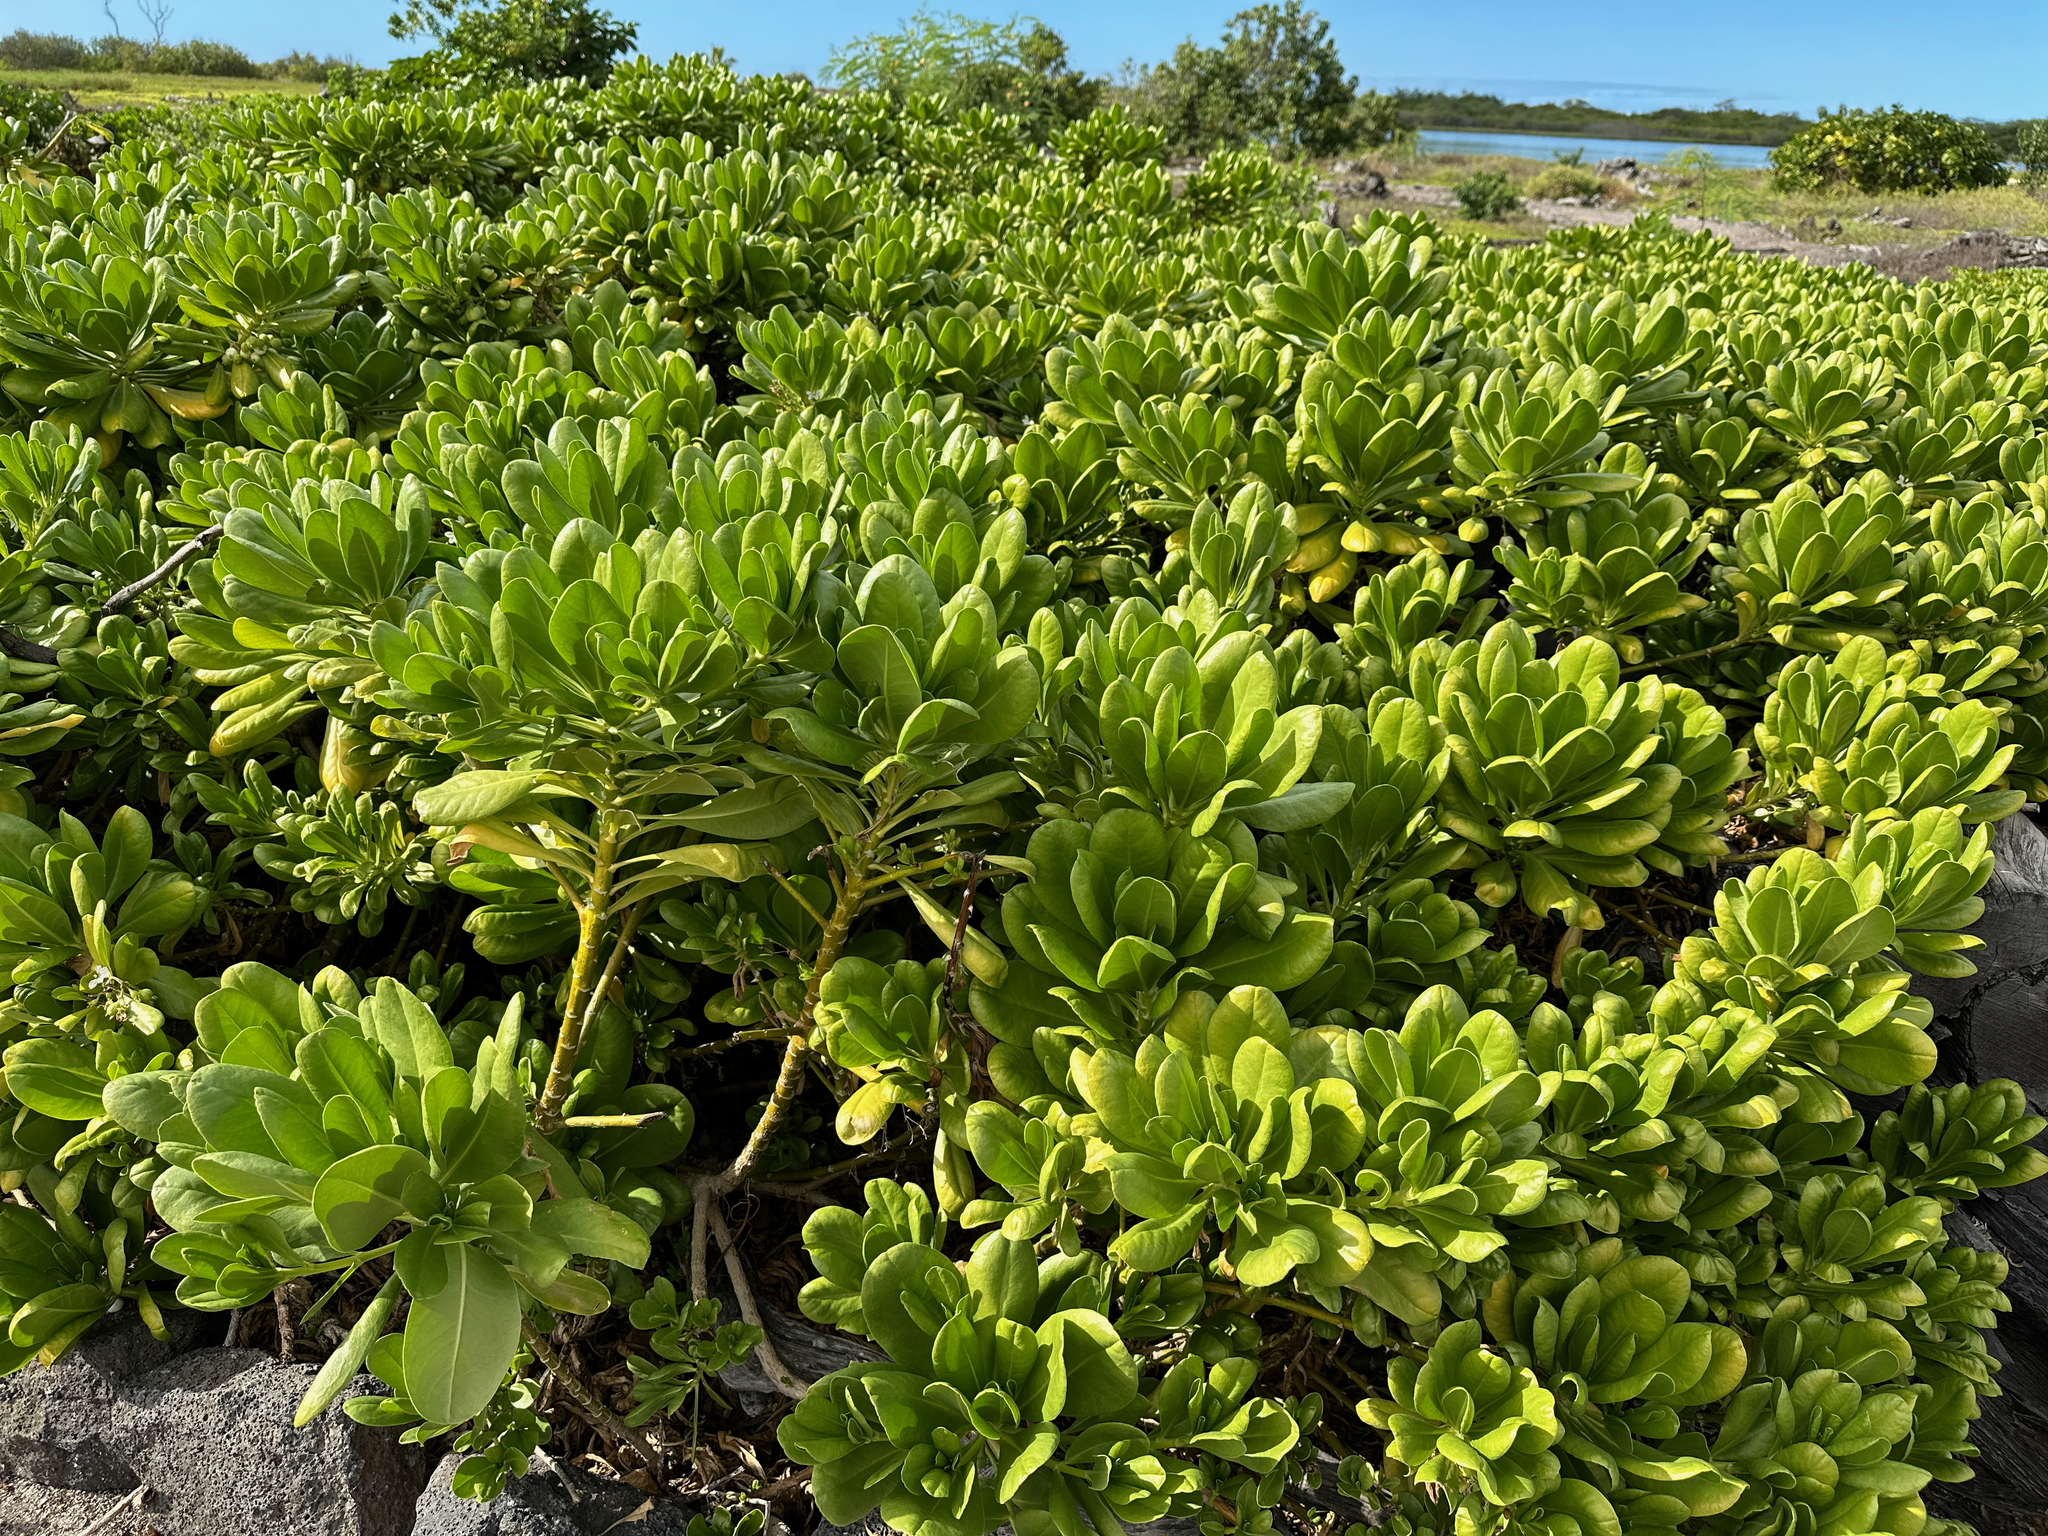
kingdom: Plantae
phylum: Tracheophyta
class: Magnoliopsida
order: Asterales
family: Goodeniaceae
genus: Scaevola
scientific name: Scaevola taccada
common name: Sea lettucetree
